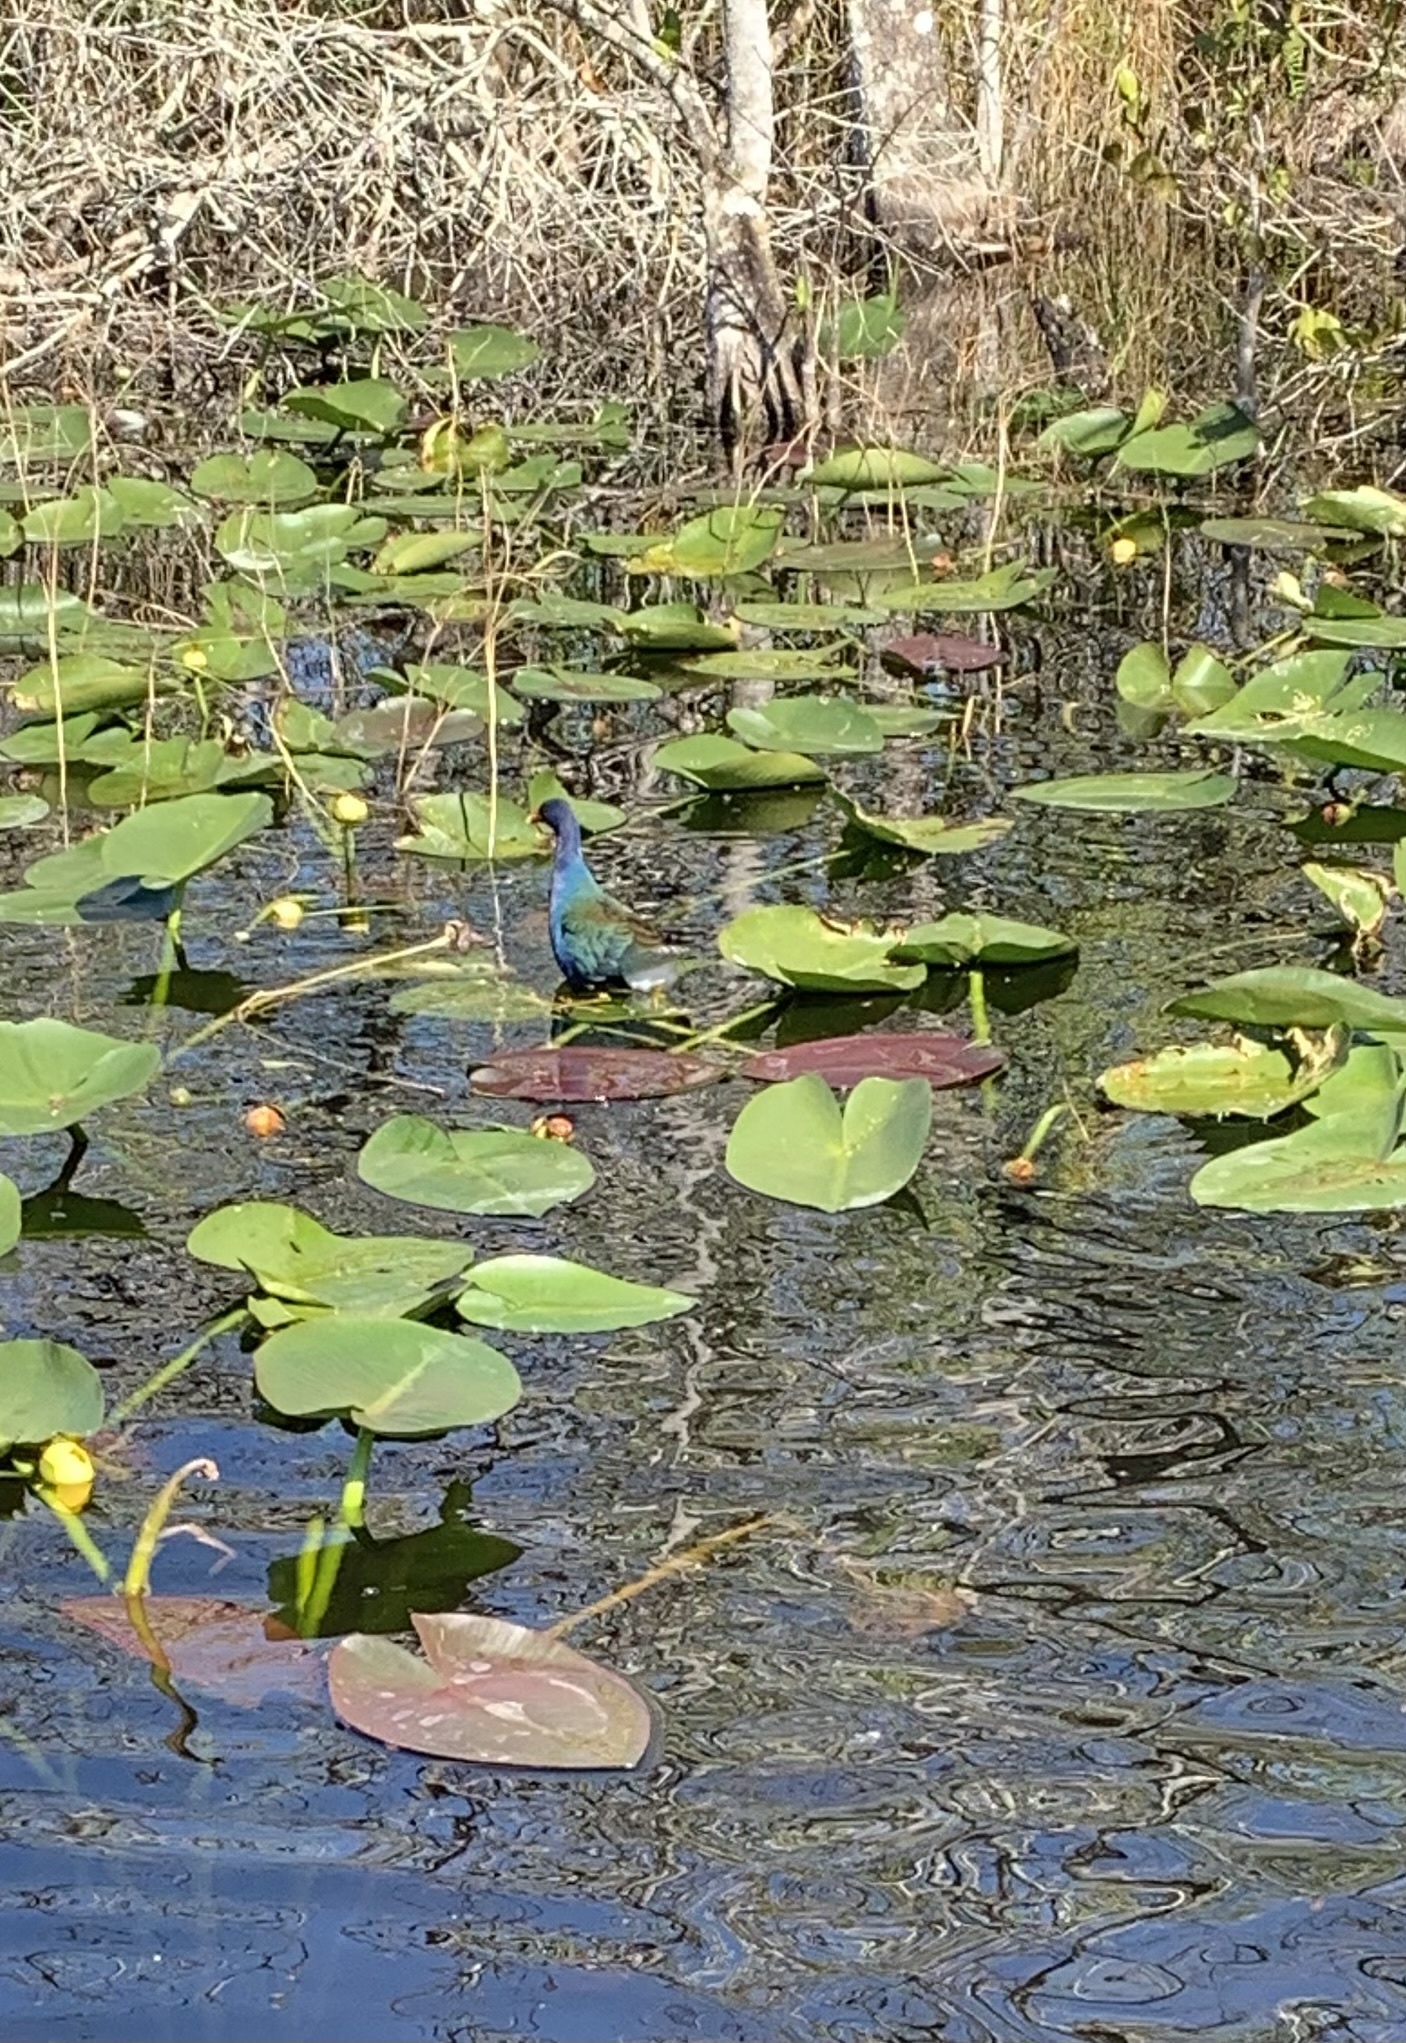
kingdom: Animalia
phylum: Chordata
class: Aves
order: Gruiformes
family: Rallidae
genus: Porphyrio
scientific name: Porphyrio martinica
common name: Purple gallinule
